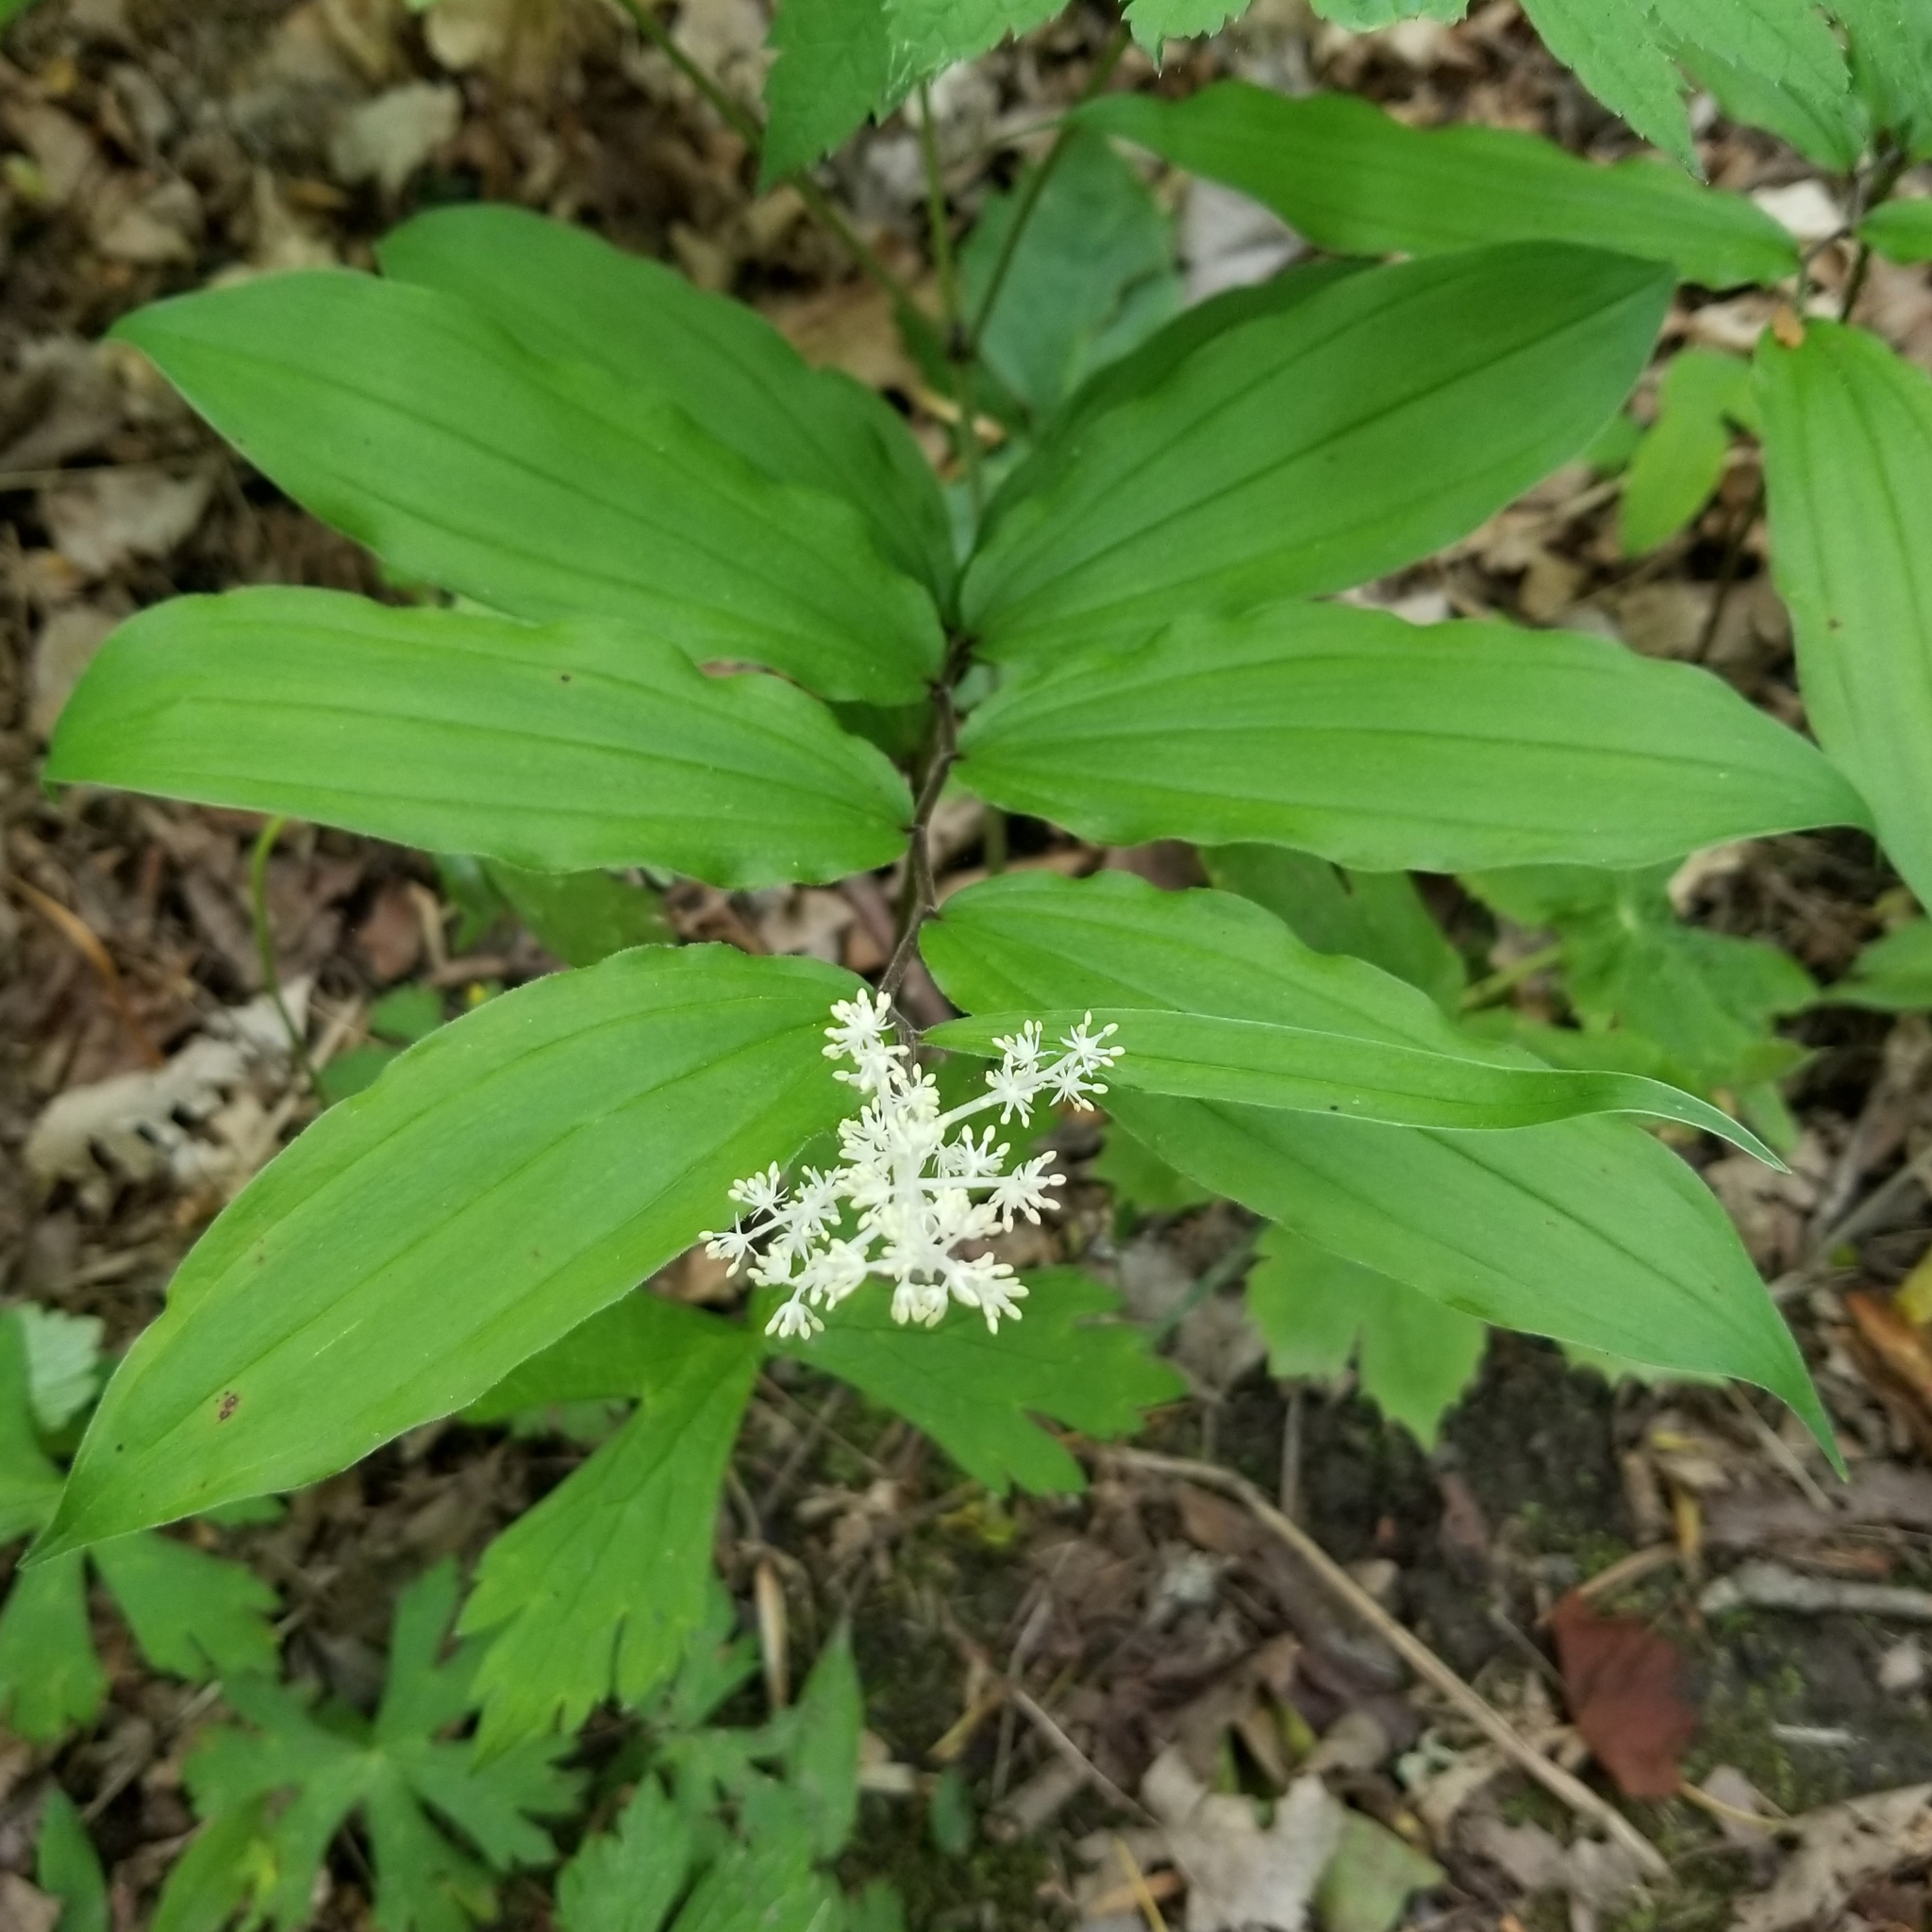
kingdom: Plantae
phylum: Tracheophyta
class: Liliopsida
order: Asparagales
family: Asparagaceae
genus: Maianthemum
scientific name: Maianthemum racemosum
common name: False spikenard
